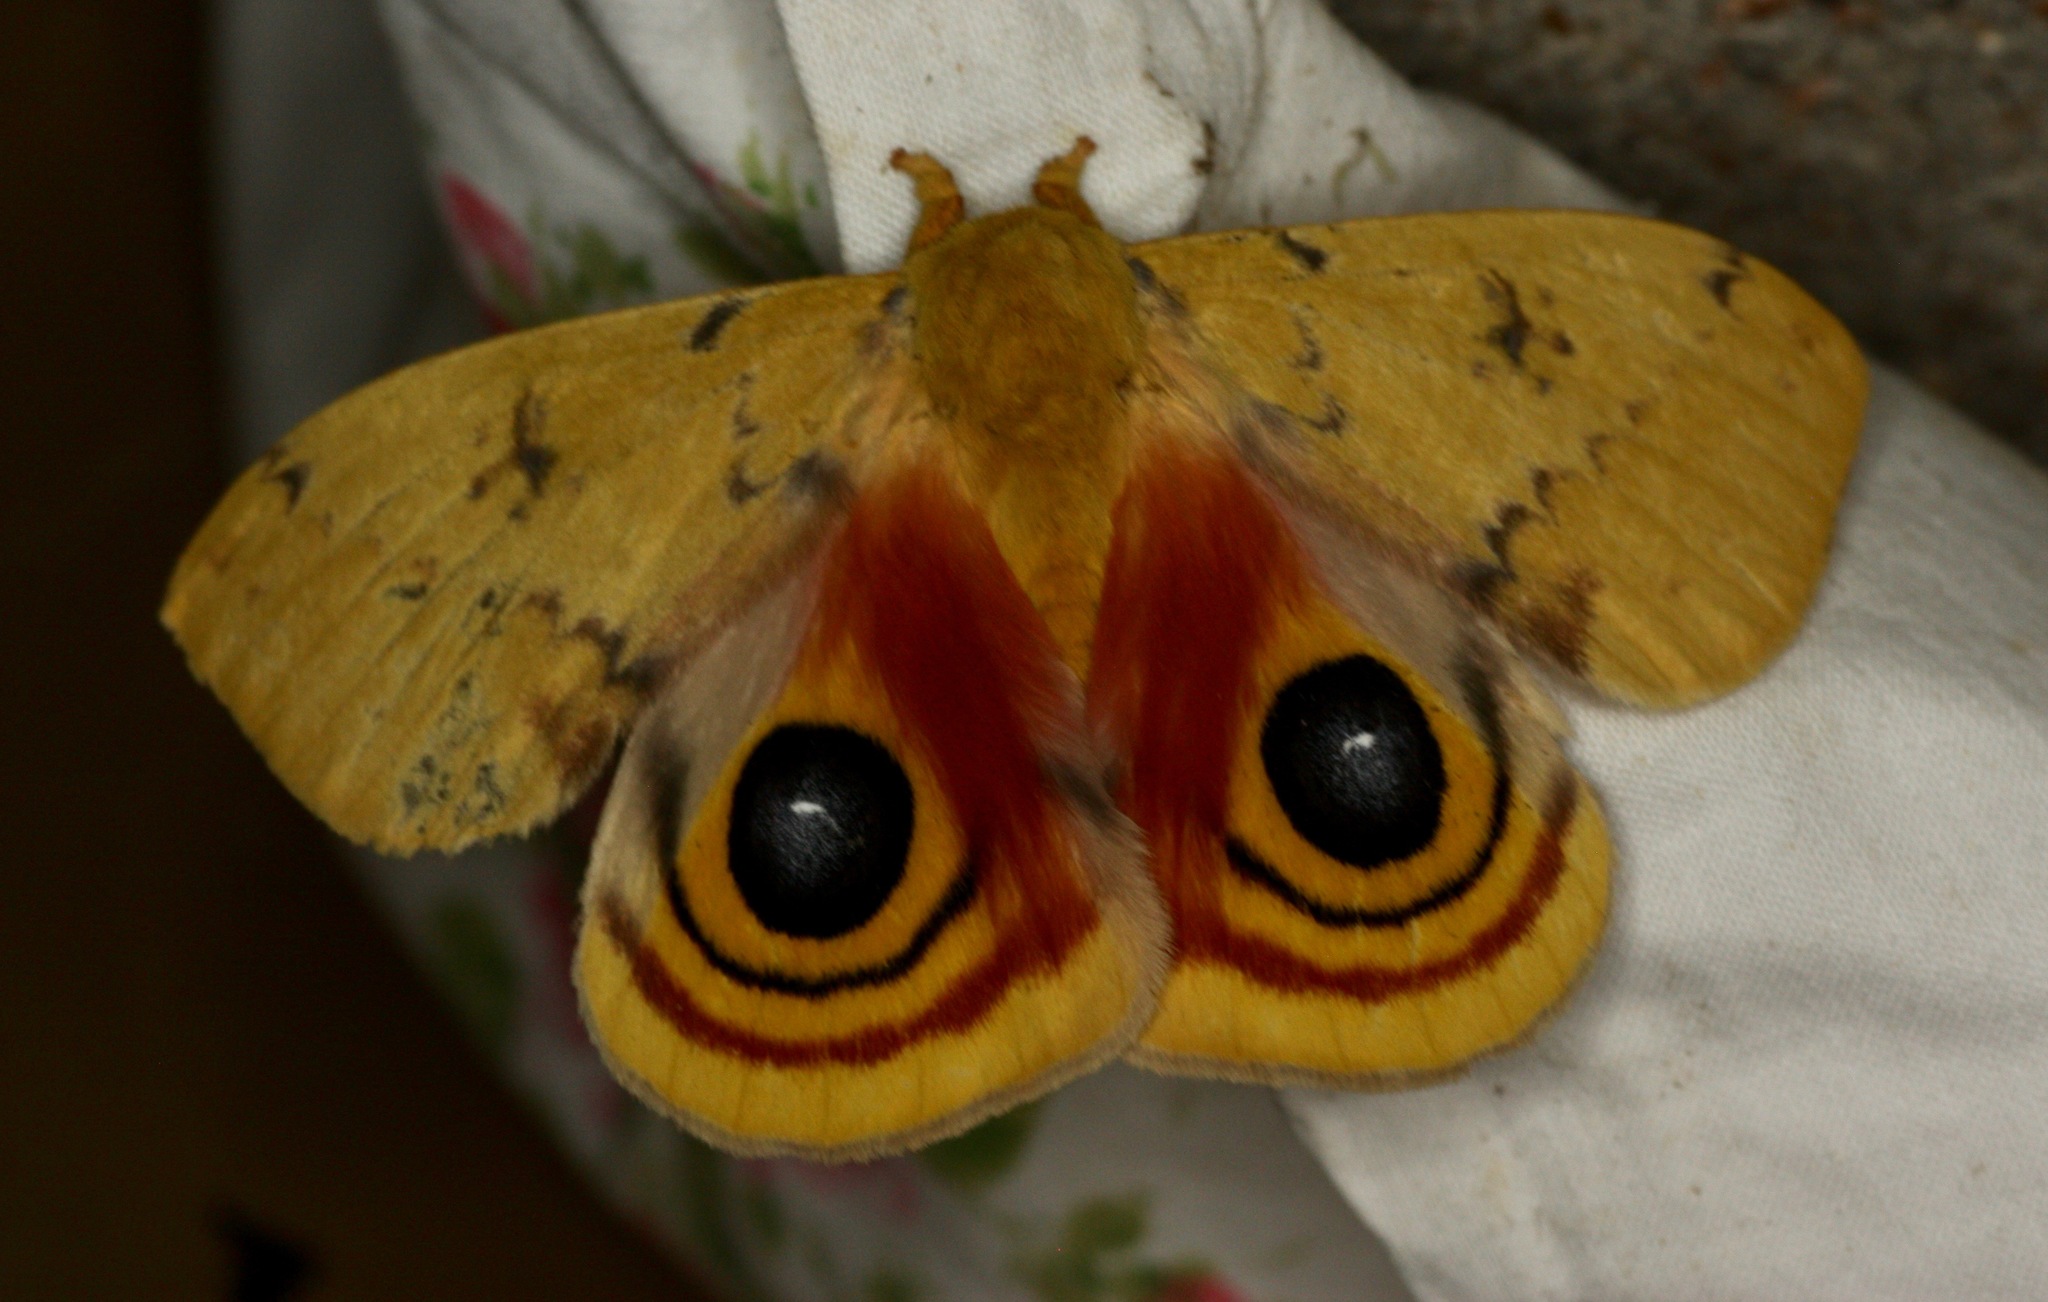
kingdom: Animalia
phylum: Arthropoda
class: Insecta
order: Lepidoptera
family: Saturniidae
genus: Automeris
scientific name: Automeris io
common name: Io moth
